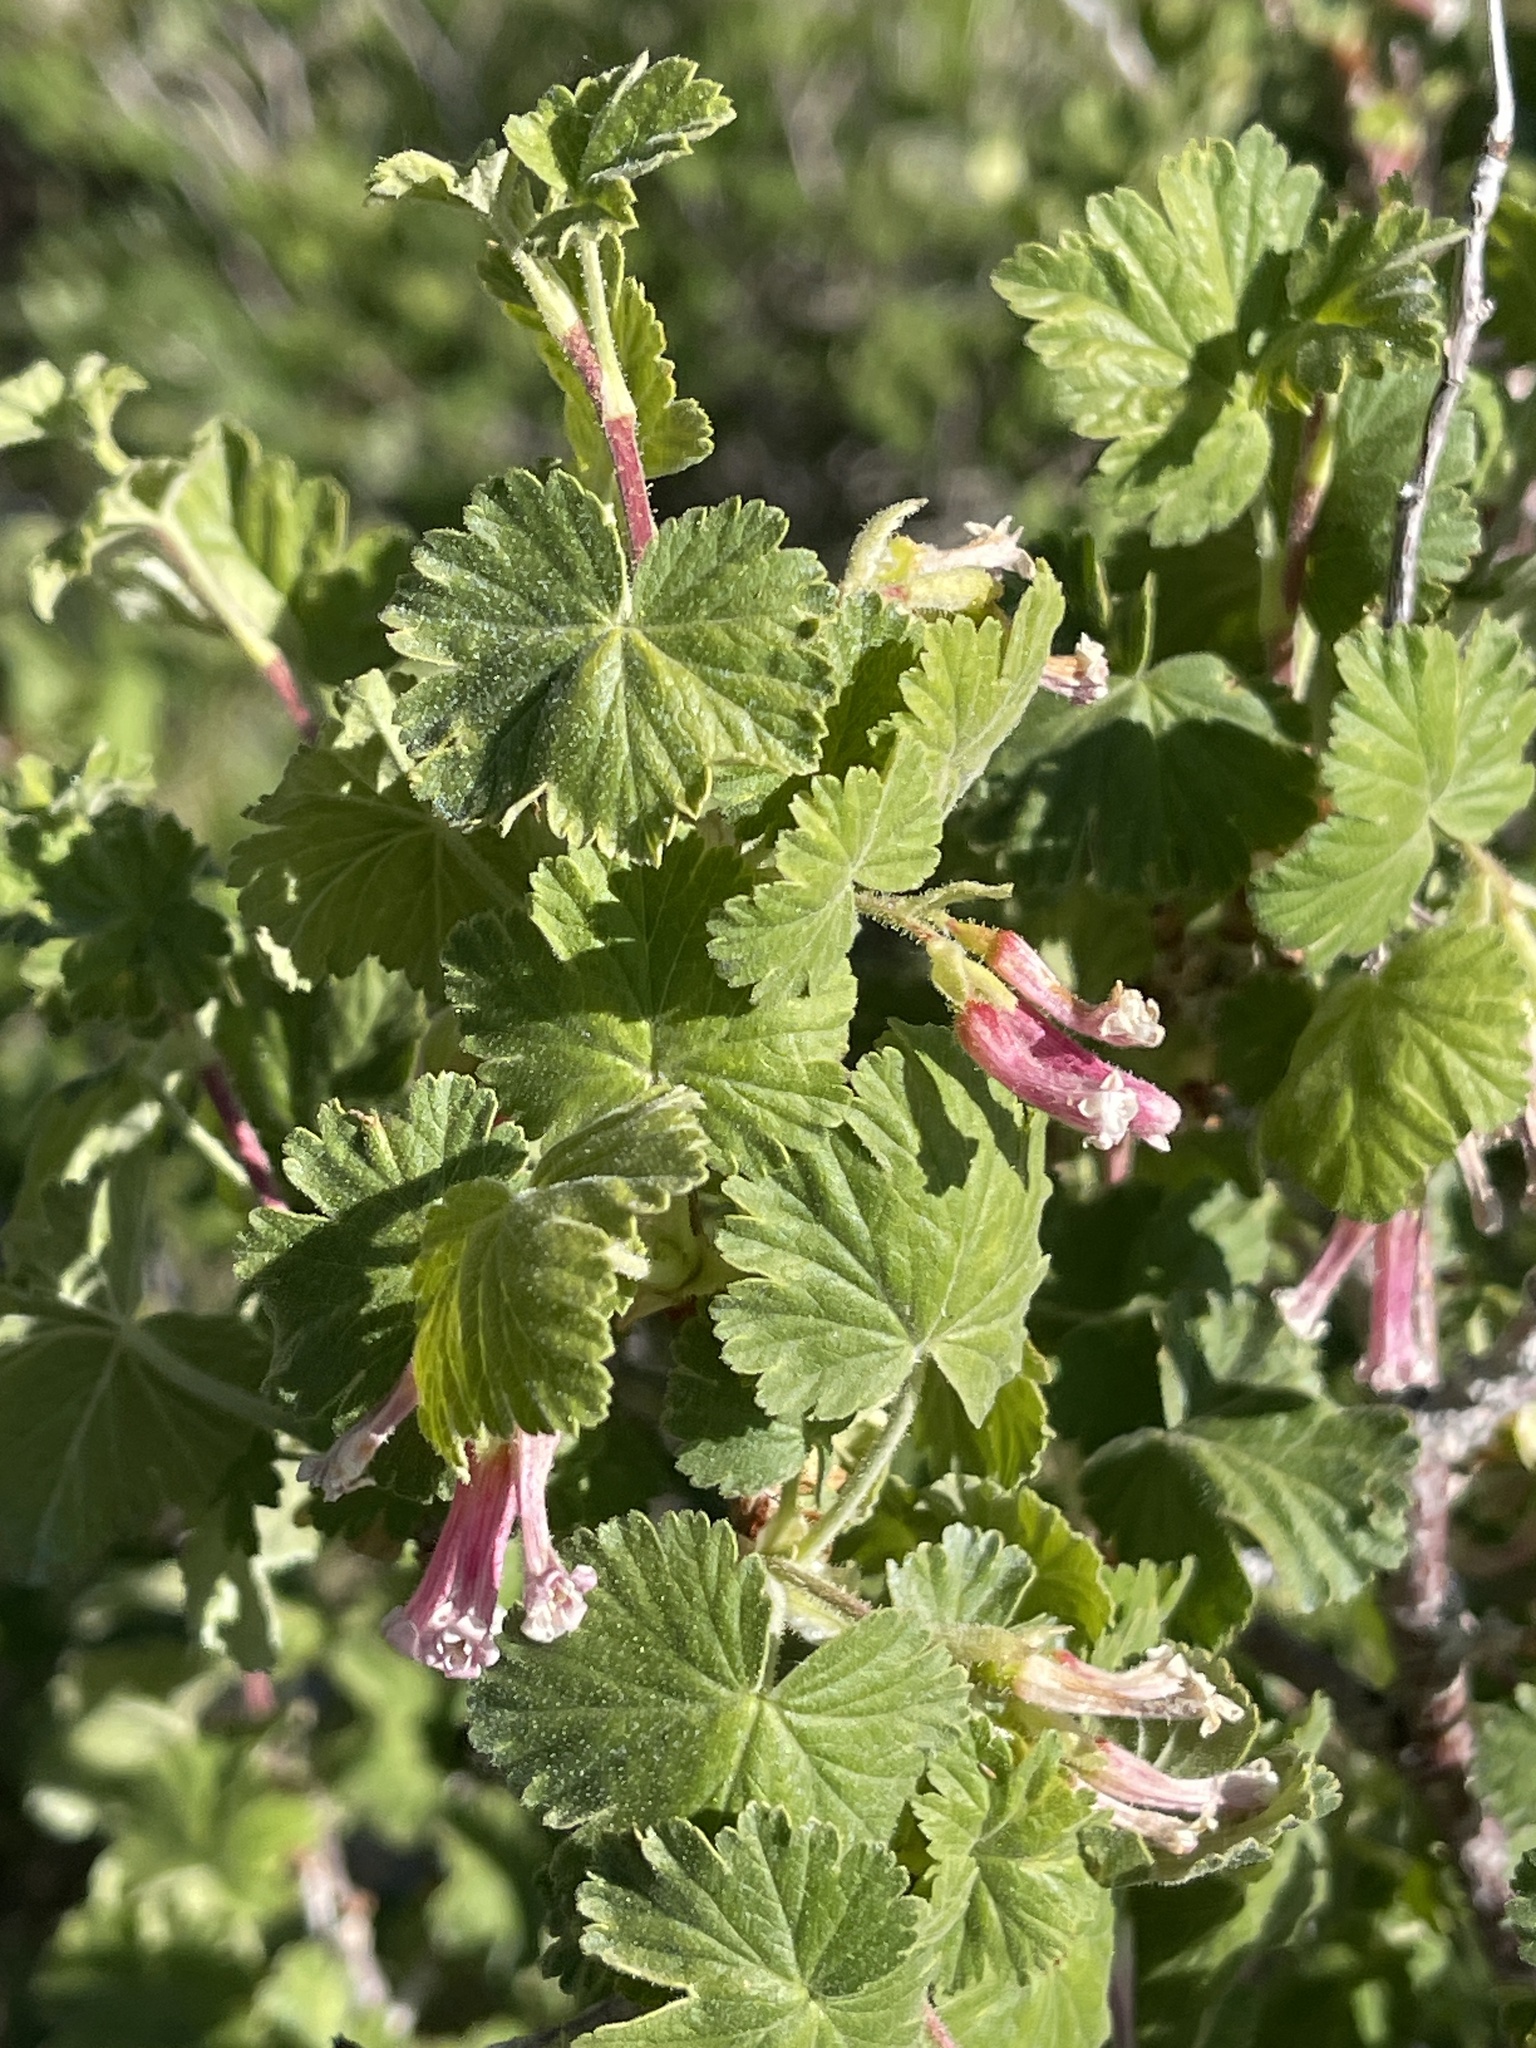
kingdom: Plantae
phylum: Tracheophyta
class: Magnoliopsida
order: Saxifragales
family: Grossulariaceae
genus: Ribes
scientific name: Ribes cereum
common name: Wax currant
